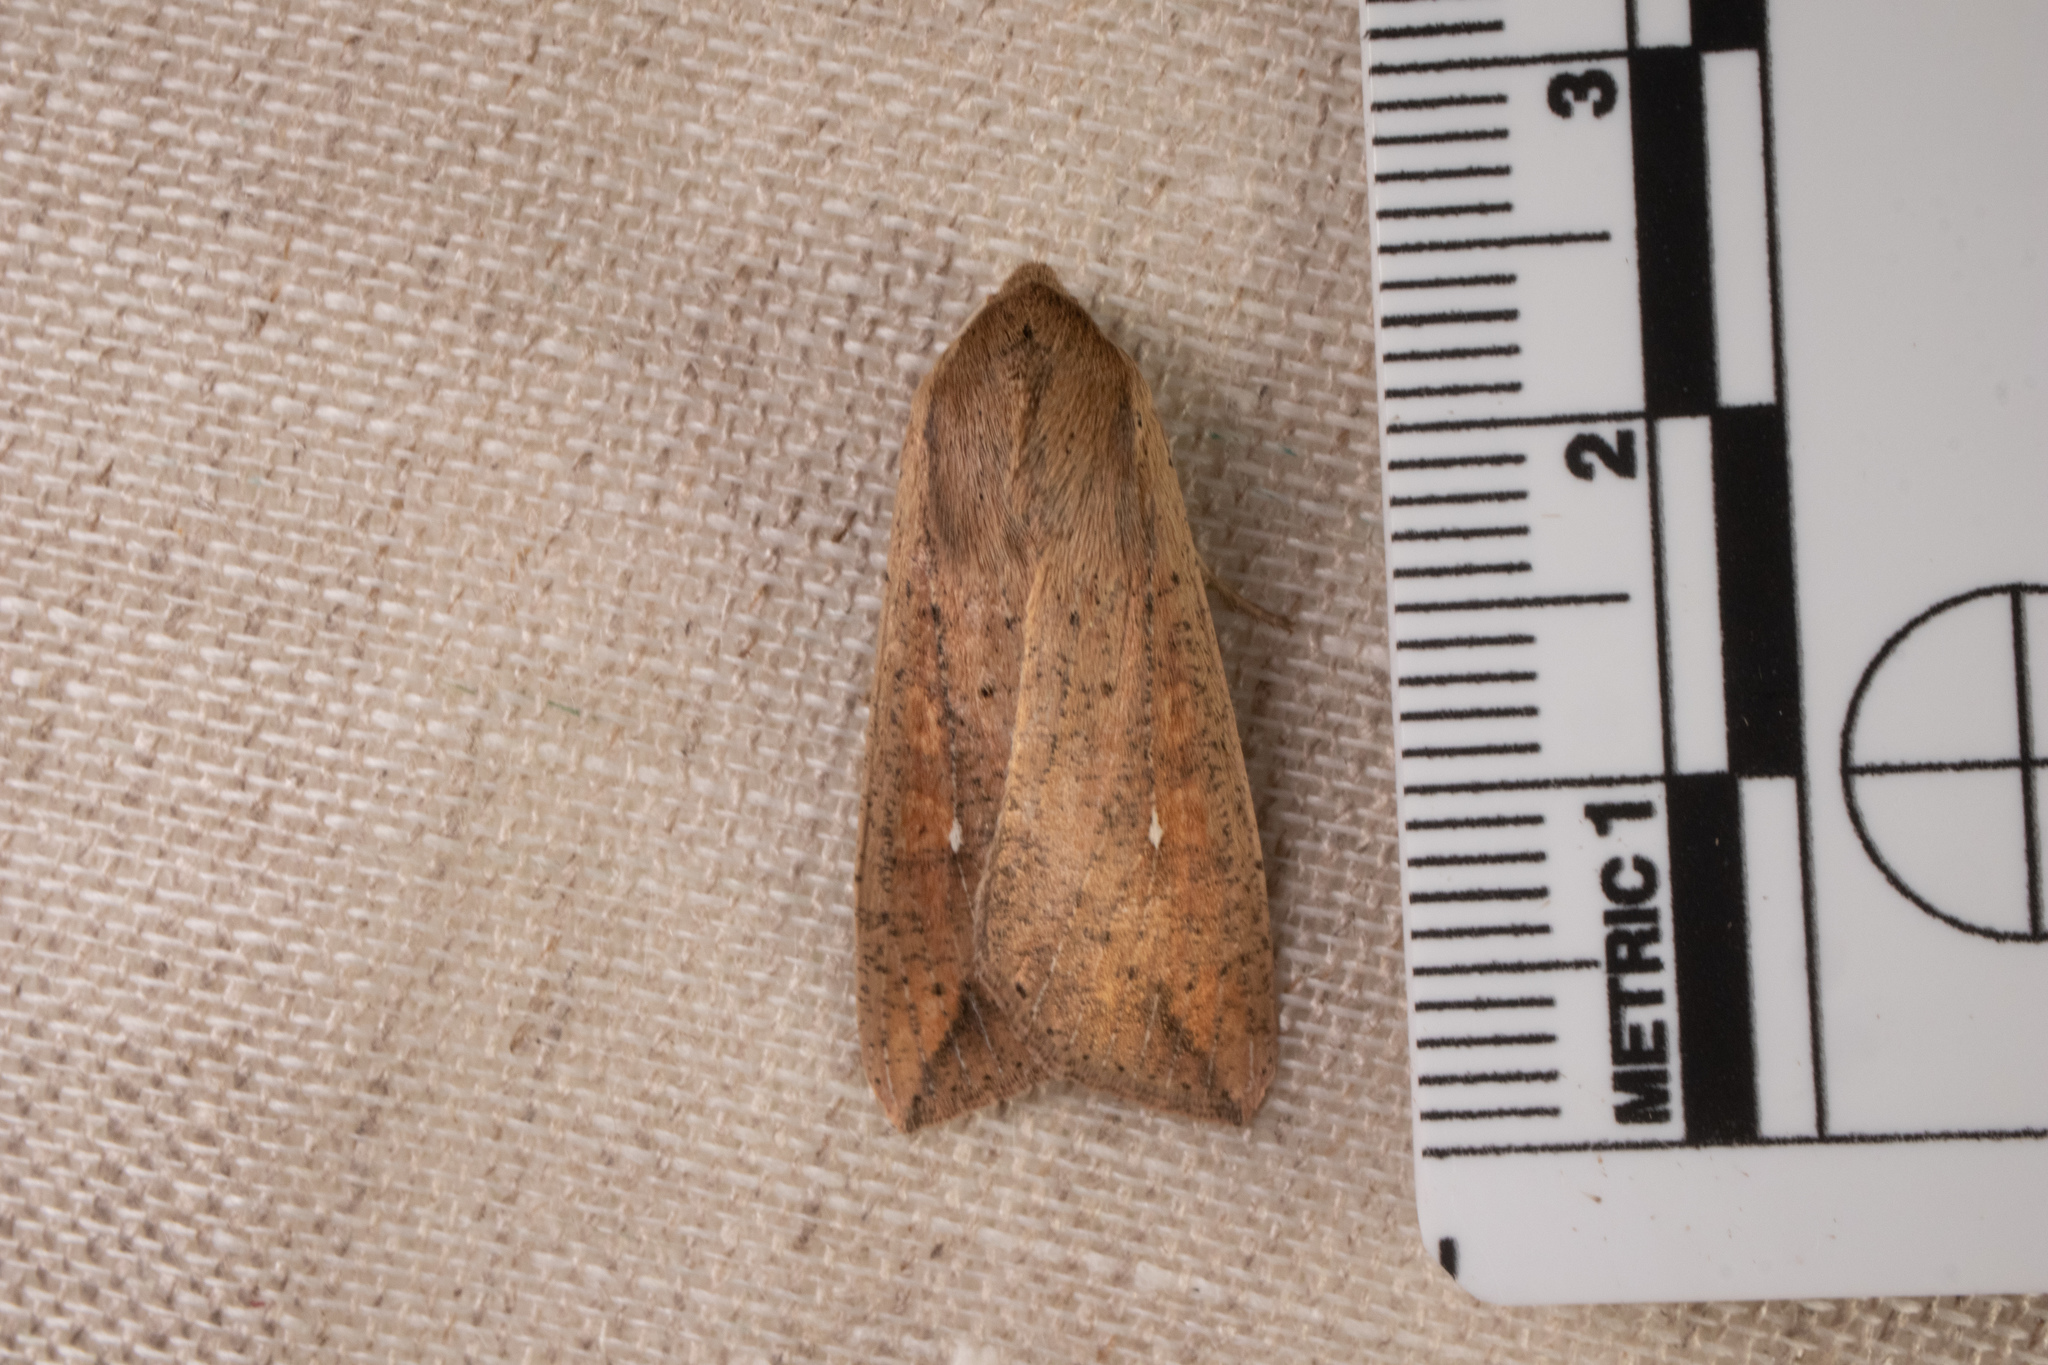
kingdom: Animalia
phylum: Arthropoda
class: Insecta
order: Lepidoptera
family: Noctuidae
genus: Mythimna
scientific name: Mythimna unipuncta
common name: White-speck
